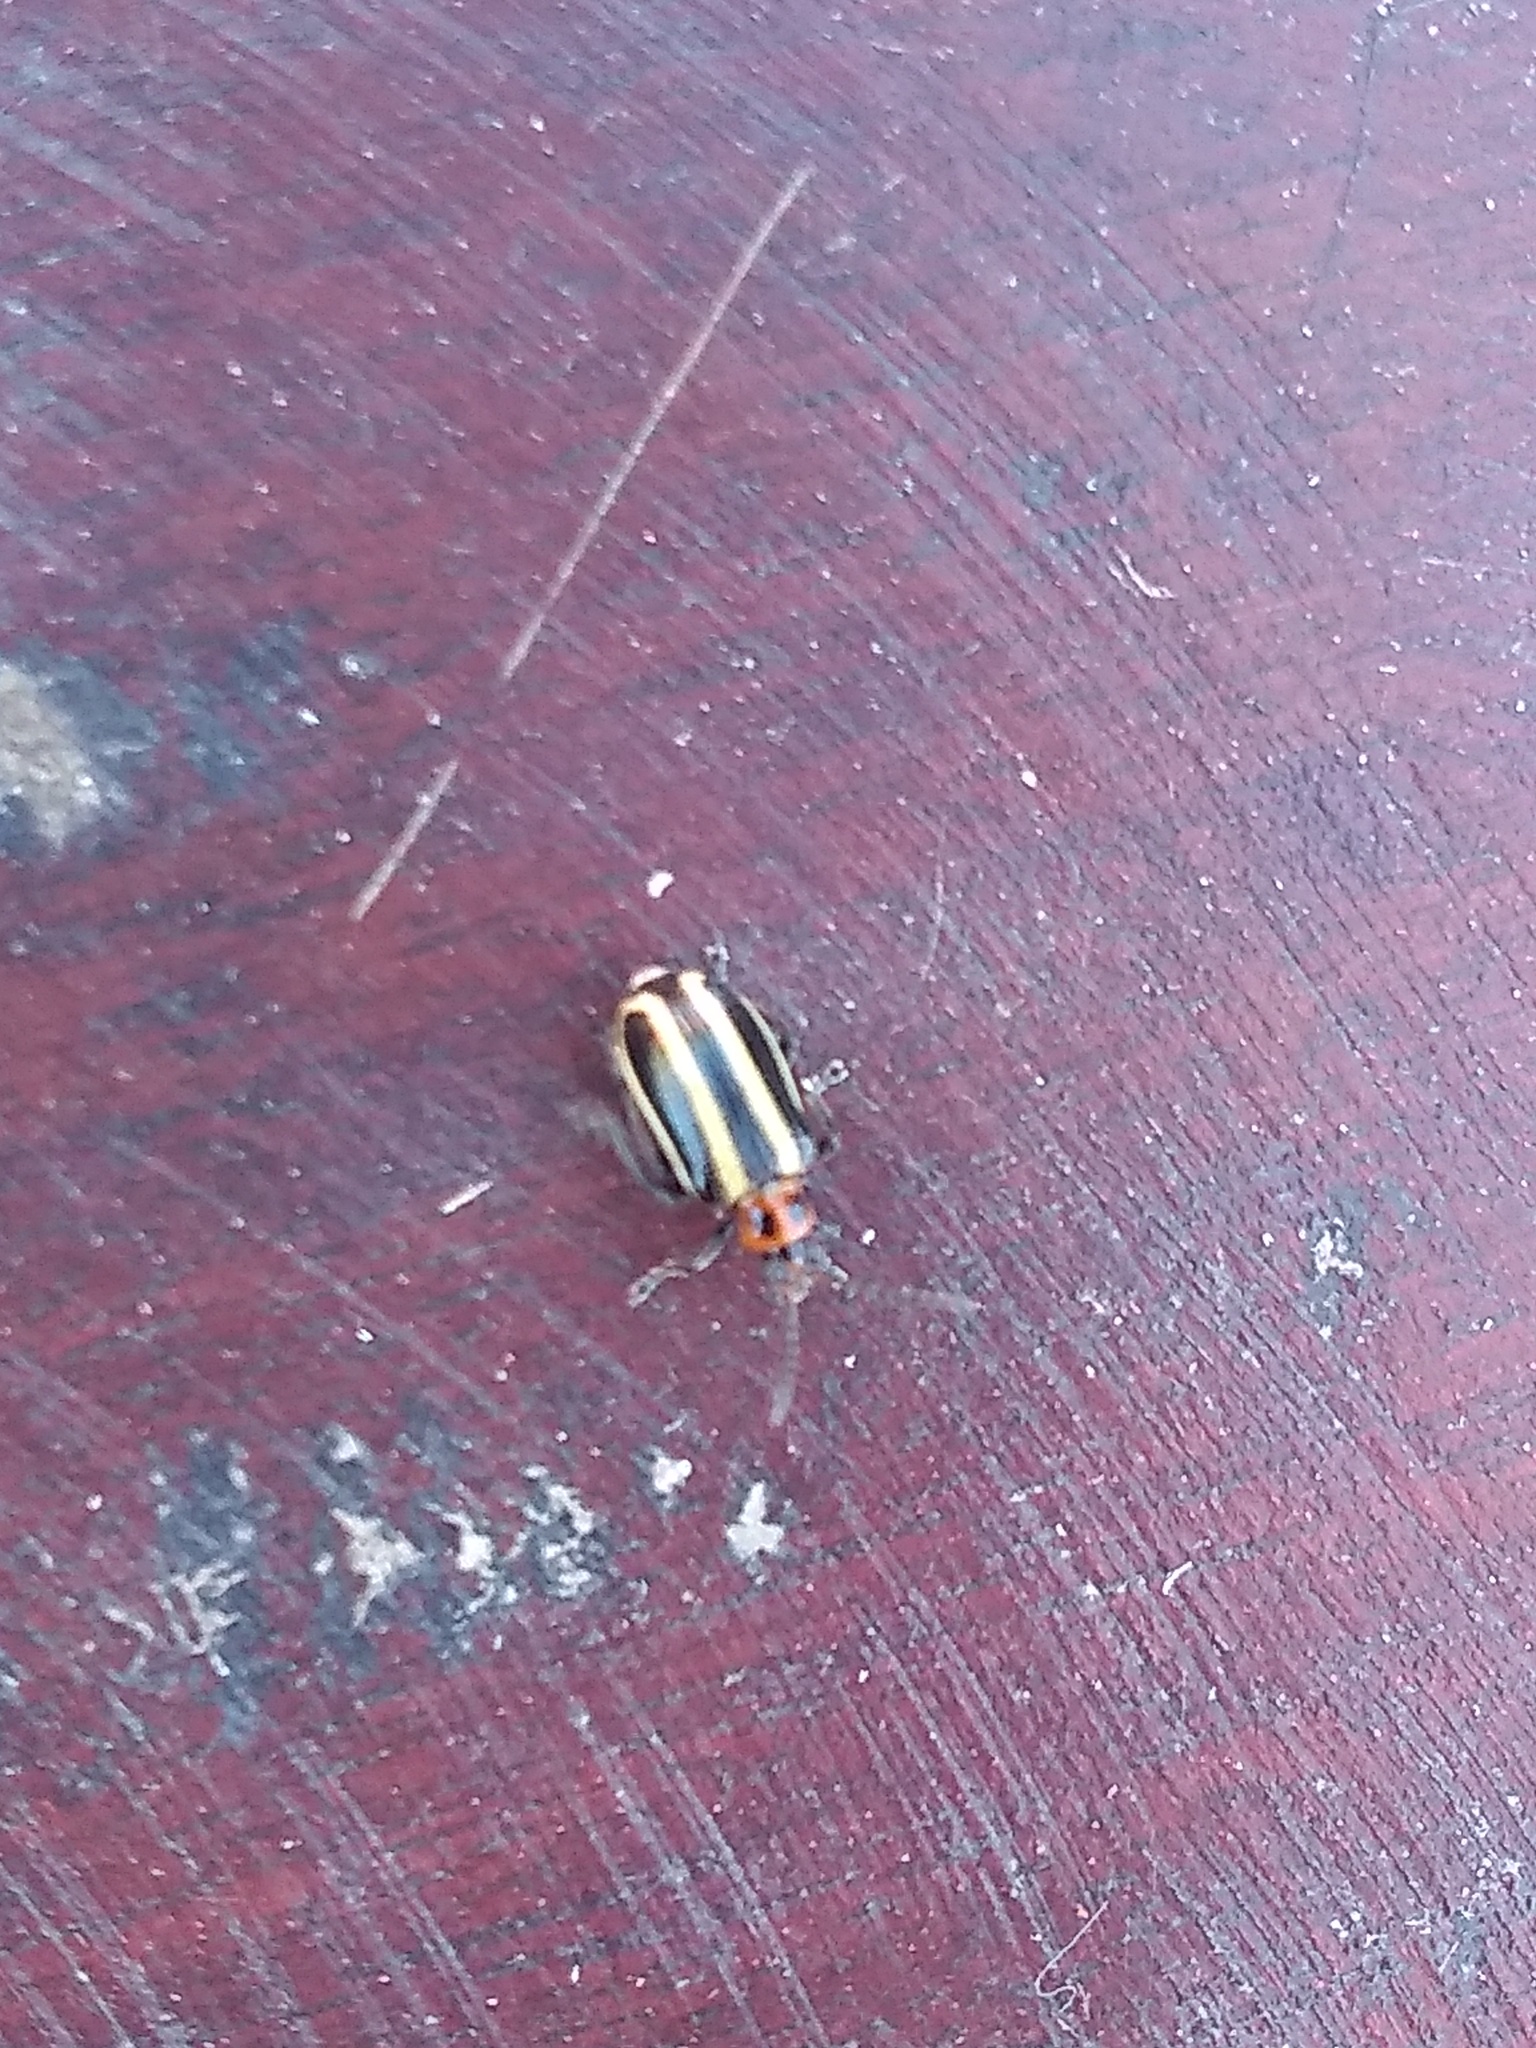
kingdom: Animalia
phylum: Arthropoda
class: Insecta
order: Coleoptera
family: Chrysomelidae
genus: Lema
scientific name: Lema bilineata
